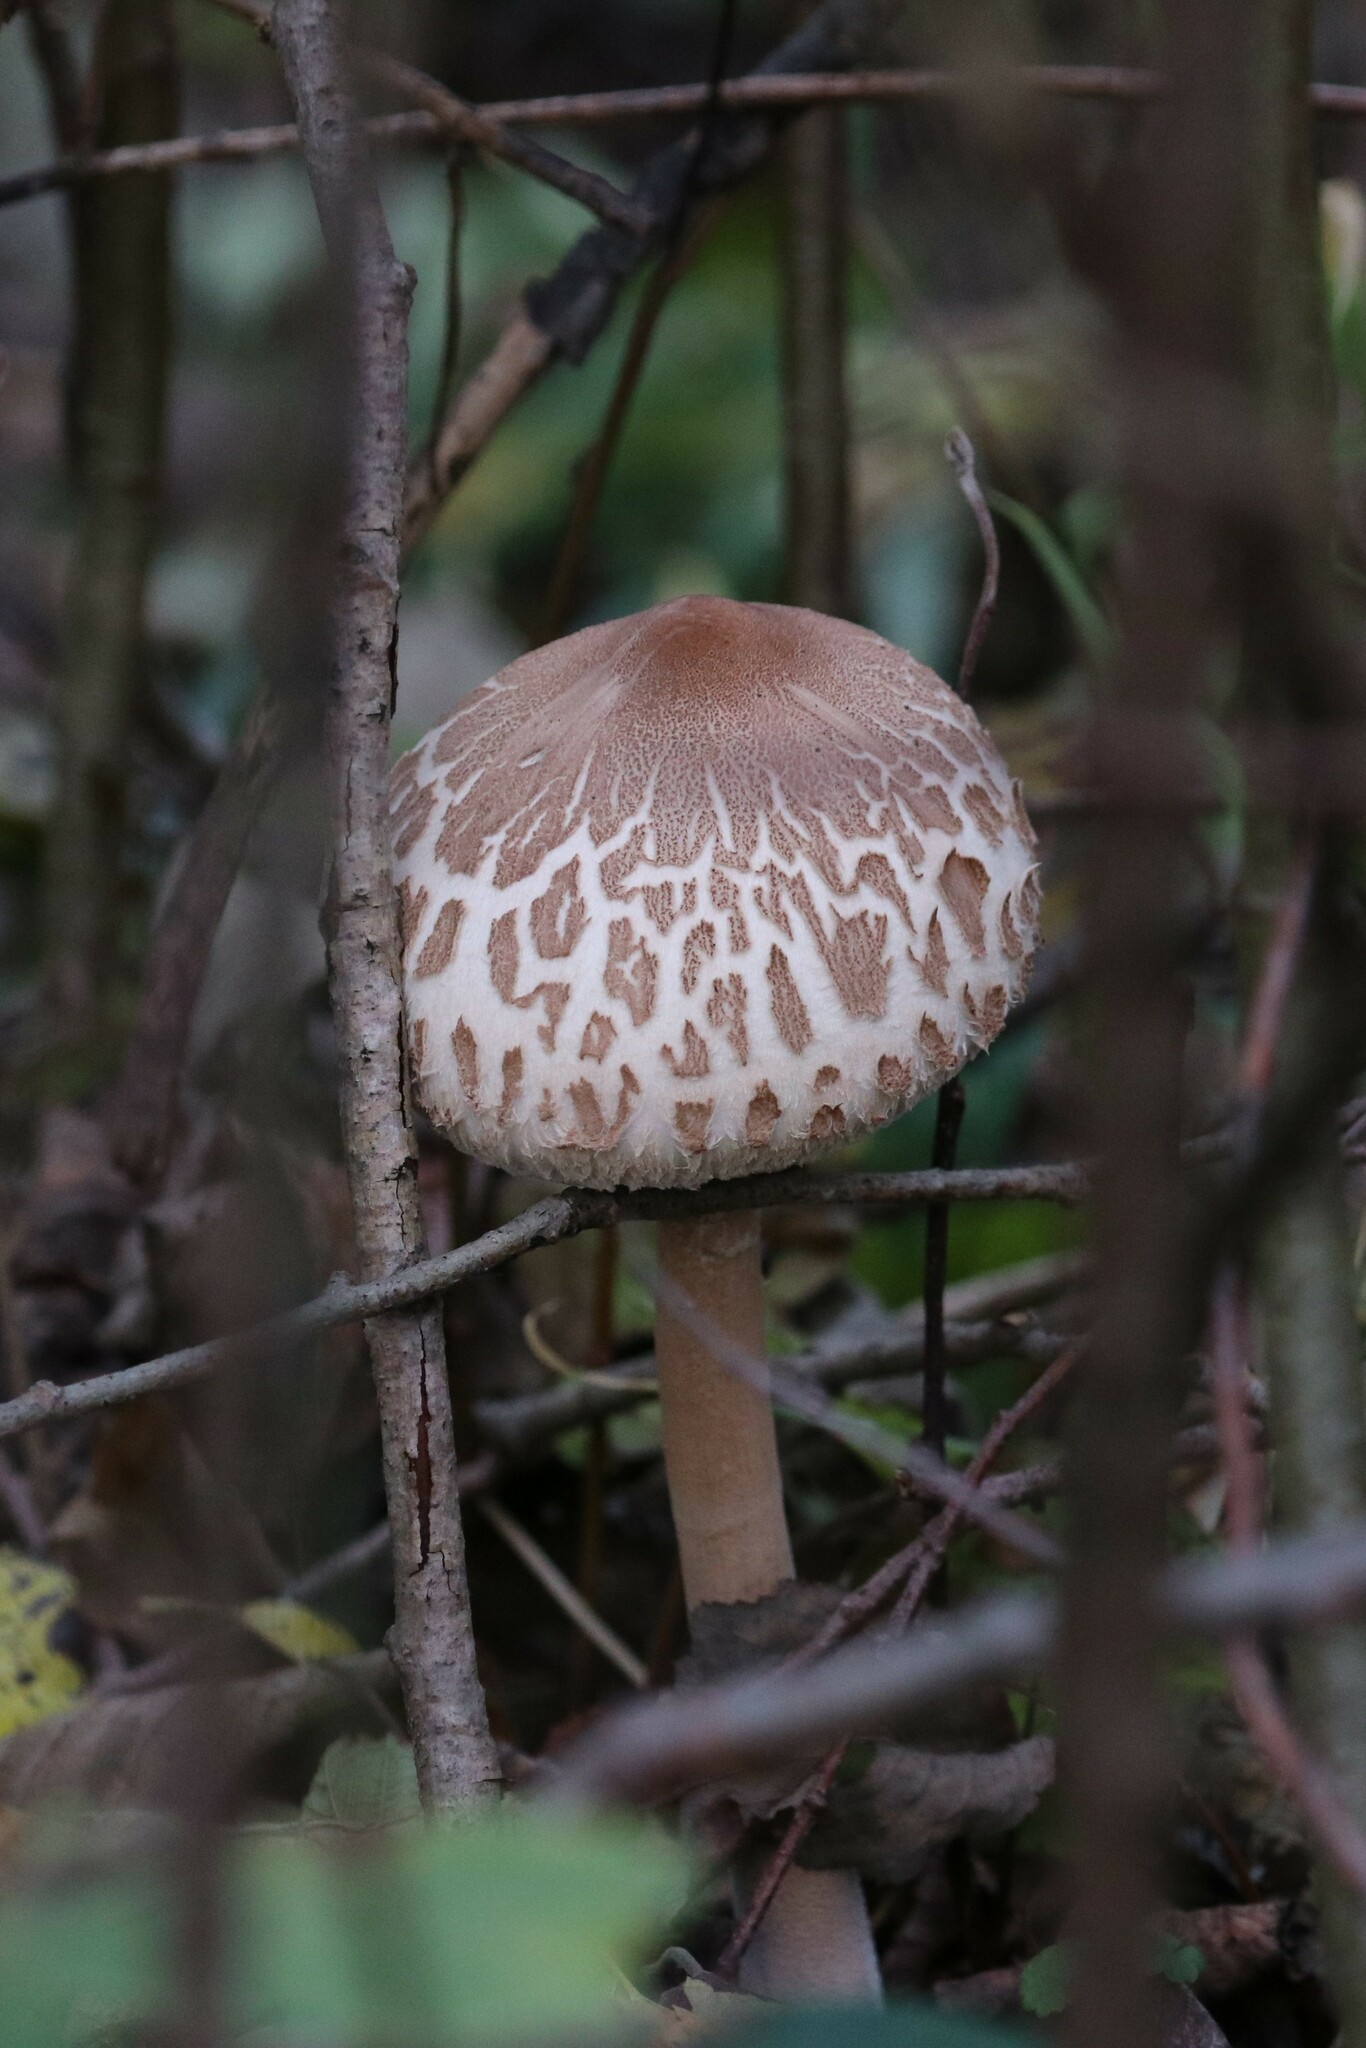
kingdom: Fungi
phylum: Basidiomycota
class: Agaricomycetes
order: Agaricales
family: Agaricaceae
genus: Macrolepiota
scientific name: Macrolepiota mastoidea
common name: Slender parasol
